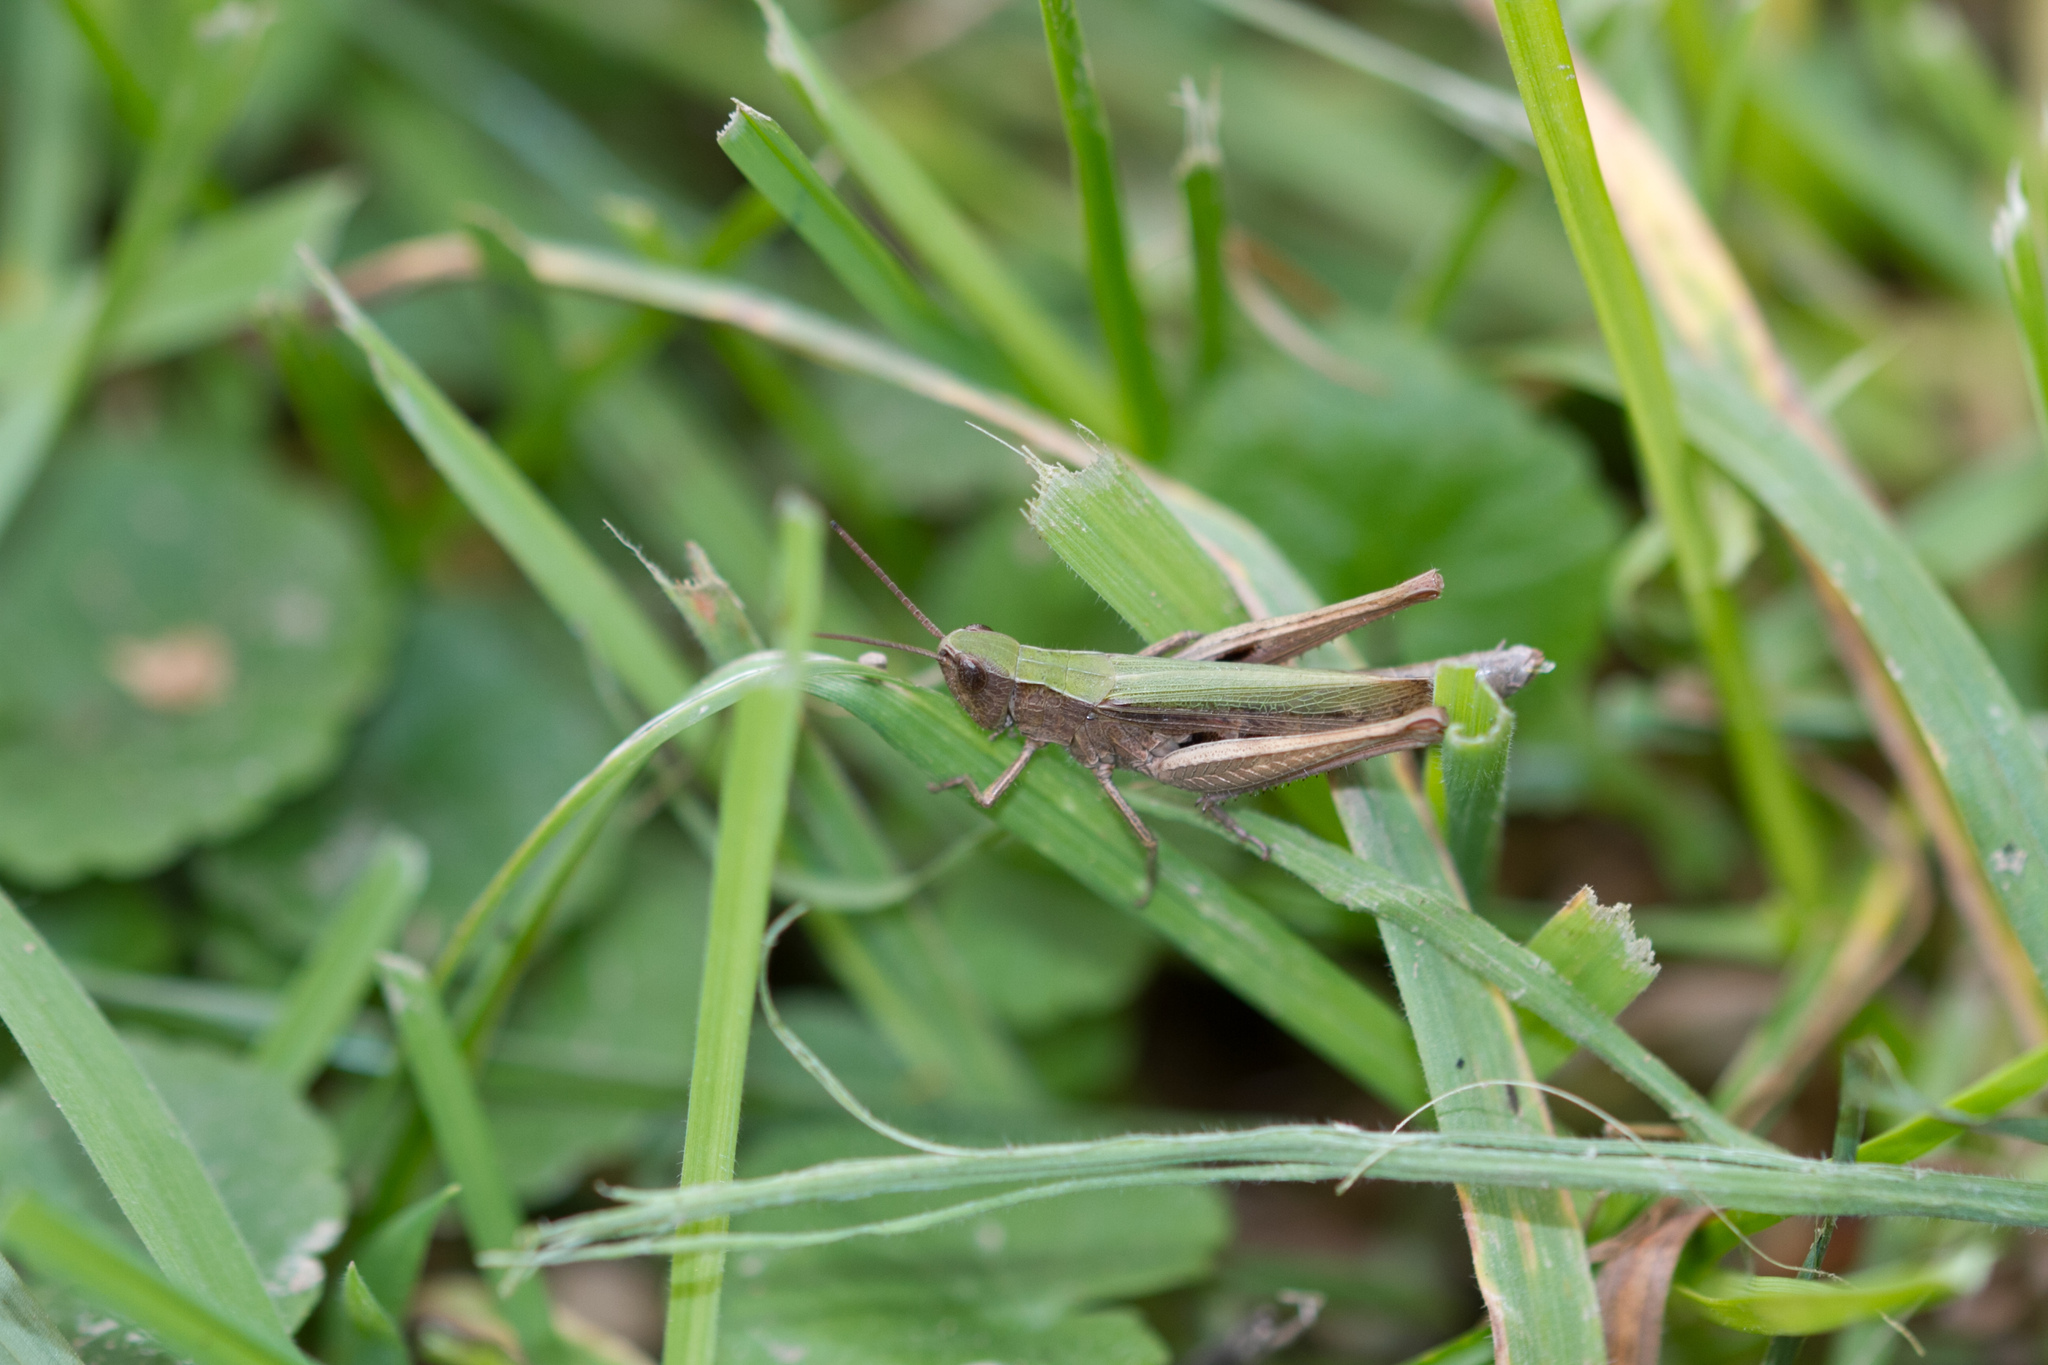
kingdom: Animalia
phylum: Arthropoda
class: Insecta
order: Orthoptera
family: Acrididae
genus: Chorthippus
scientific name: Chorthippus dorsatus
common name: Steppe grasshopper
